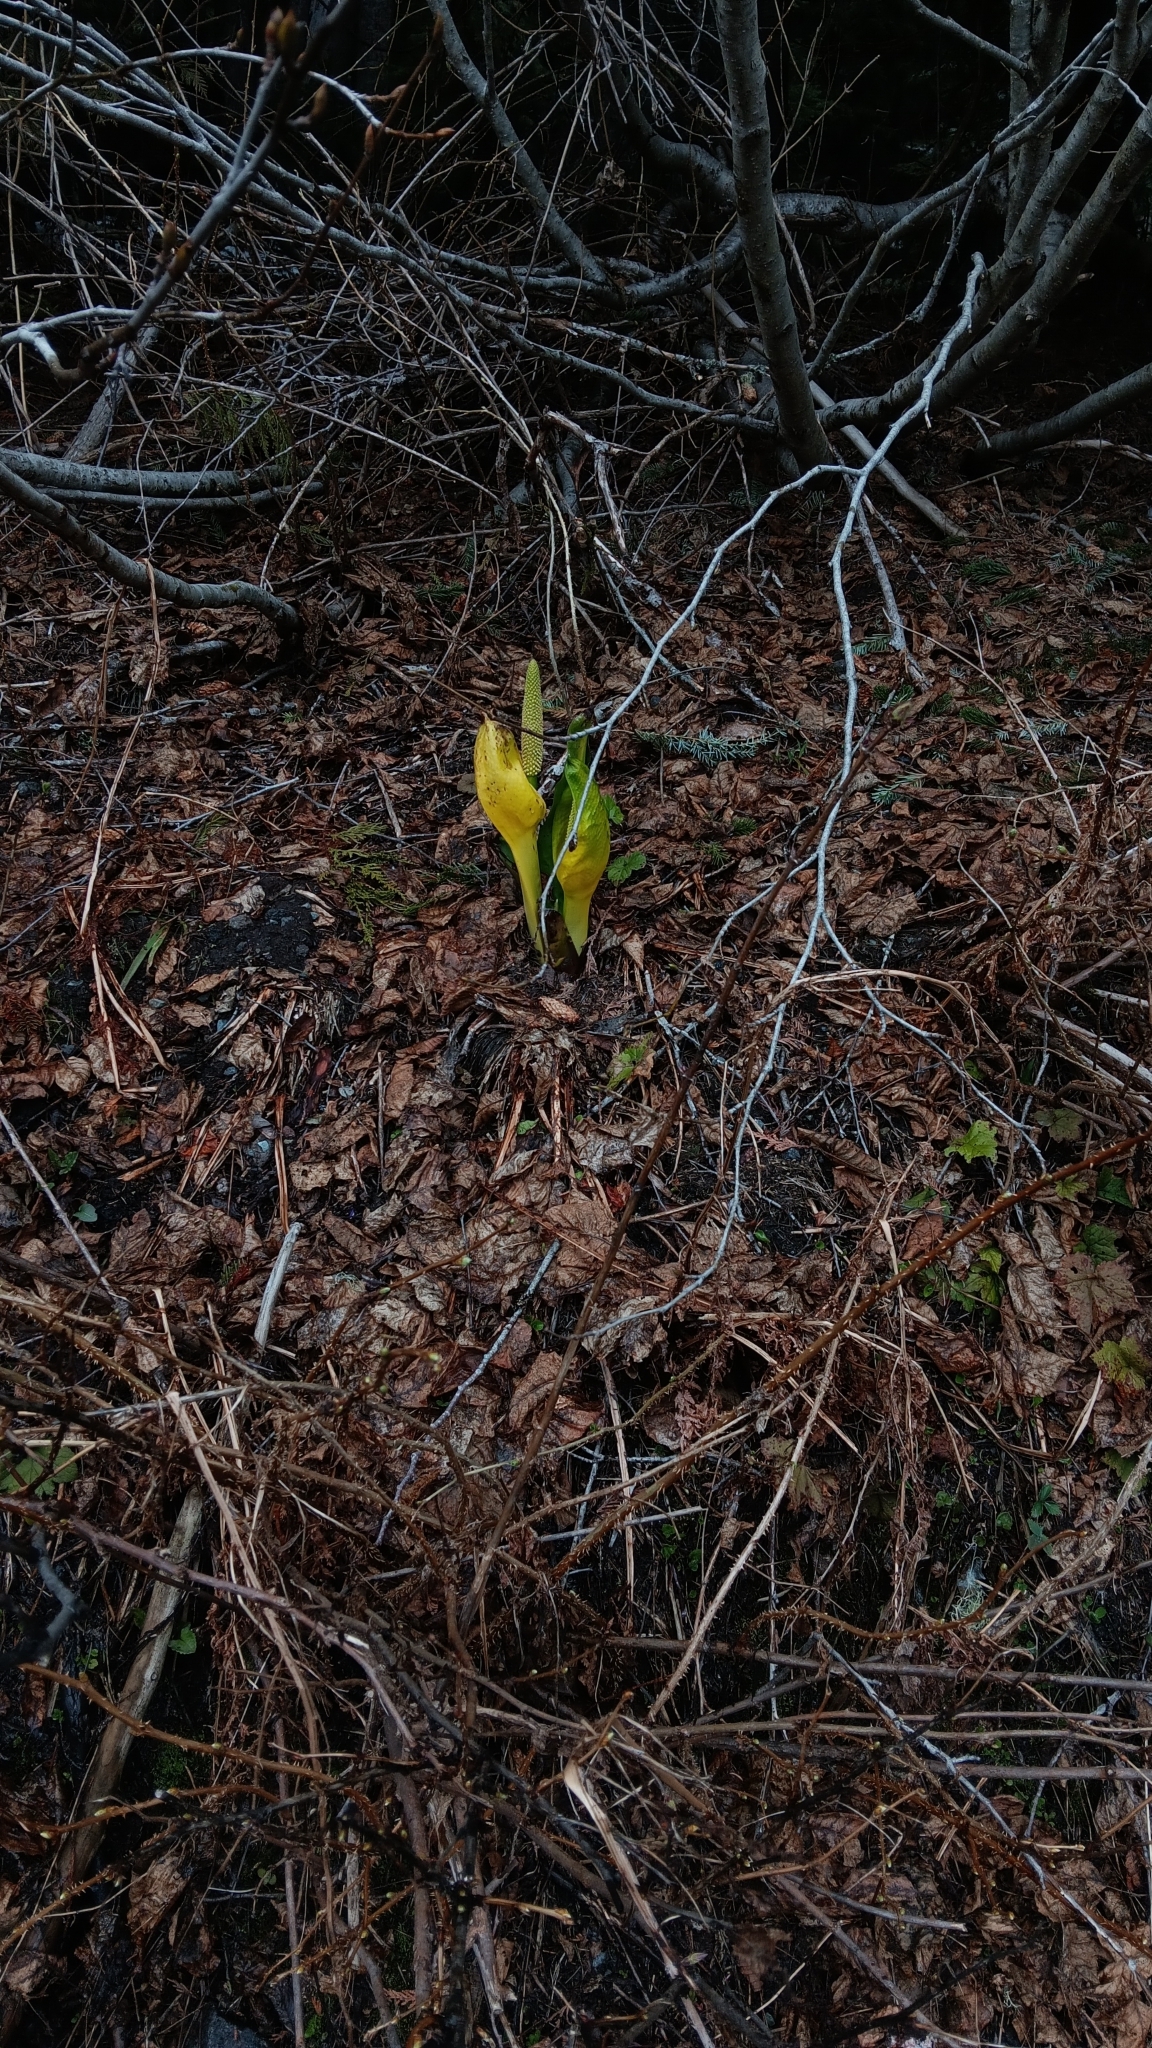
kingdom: Plantae
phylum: Tracheophyta
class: Liliopsida
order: Alismatales
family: Araceae
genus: Lysichiton
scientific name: Lysichiton americanus
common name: American skunk cabbage
